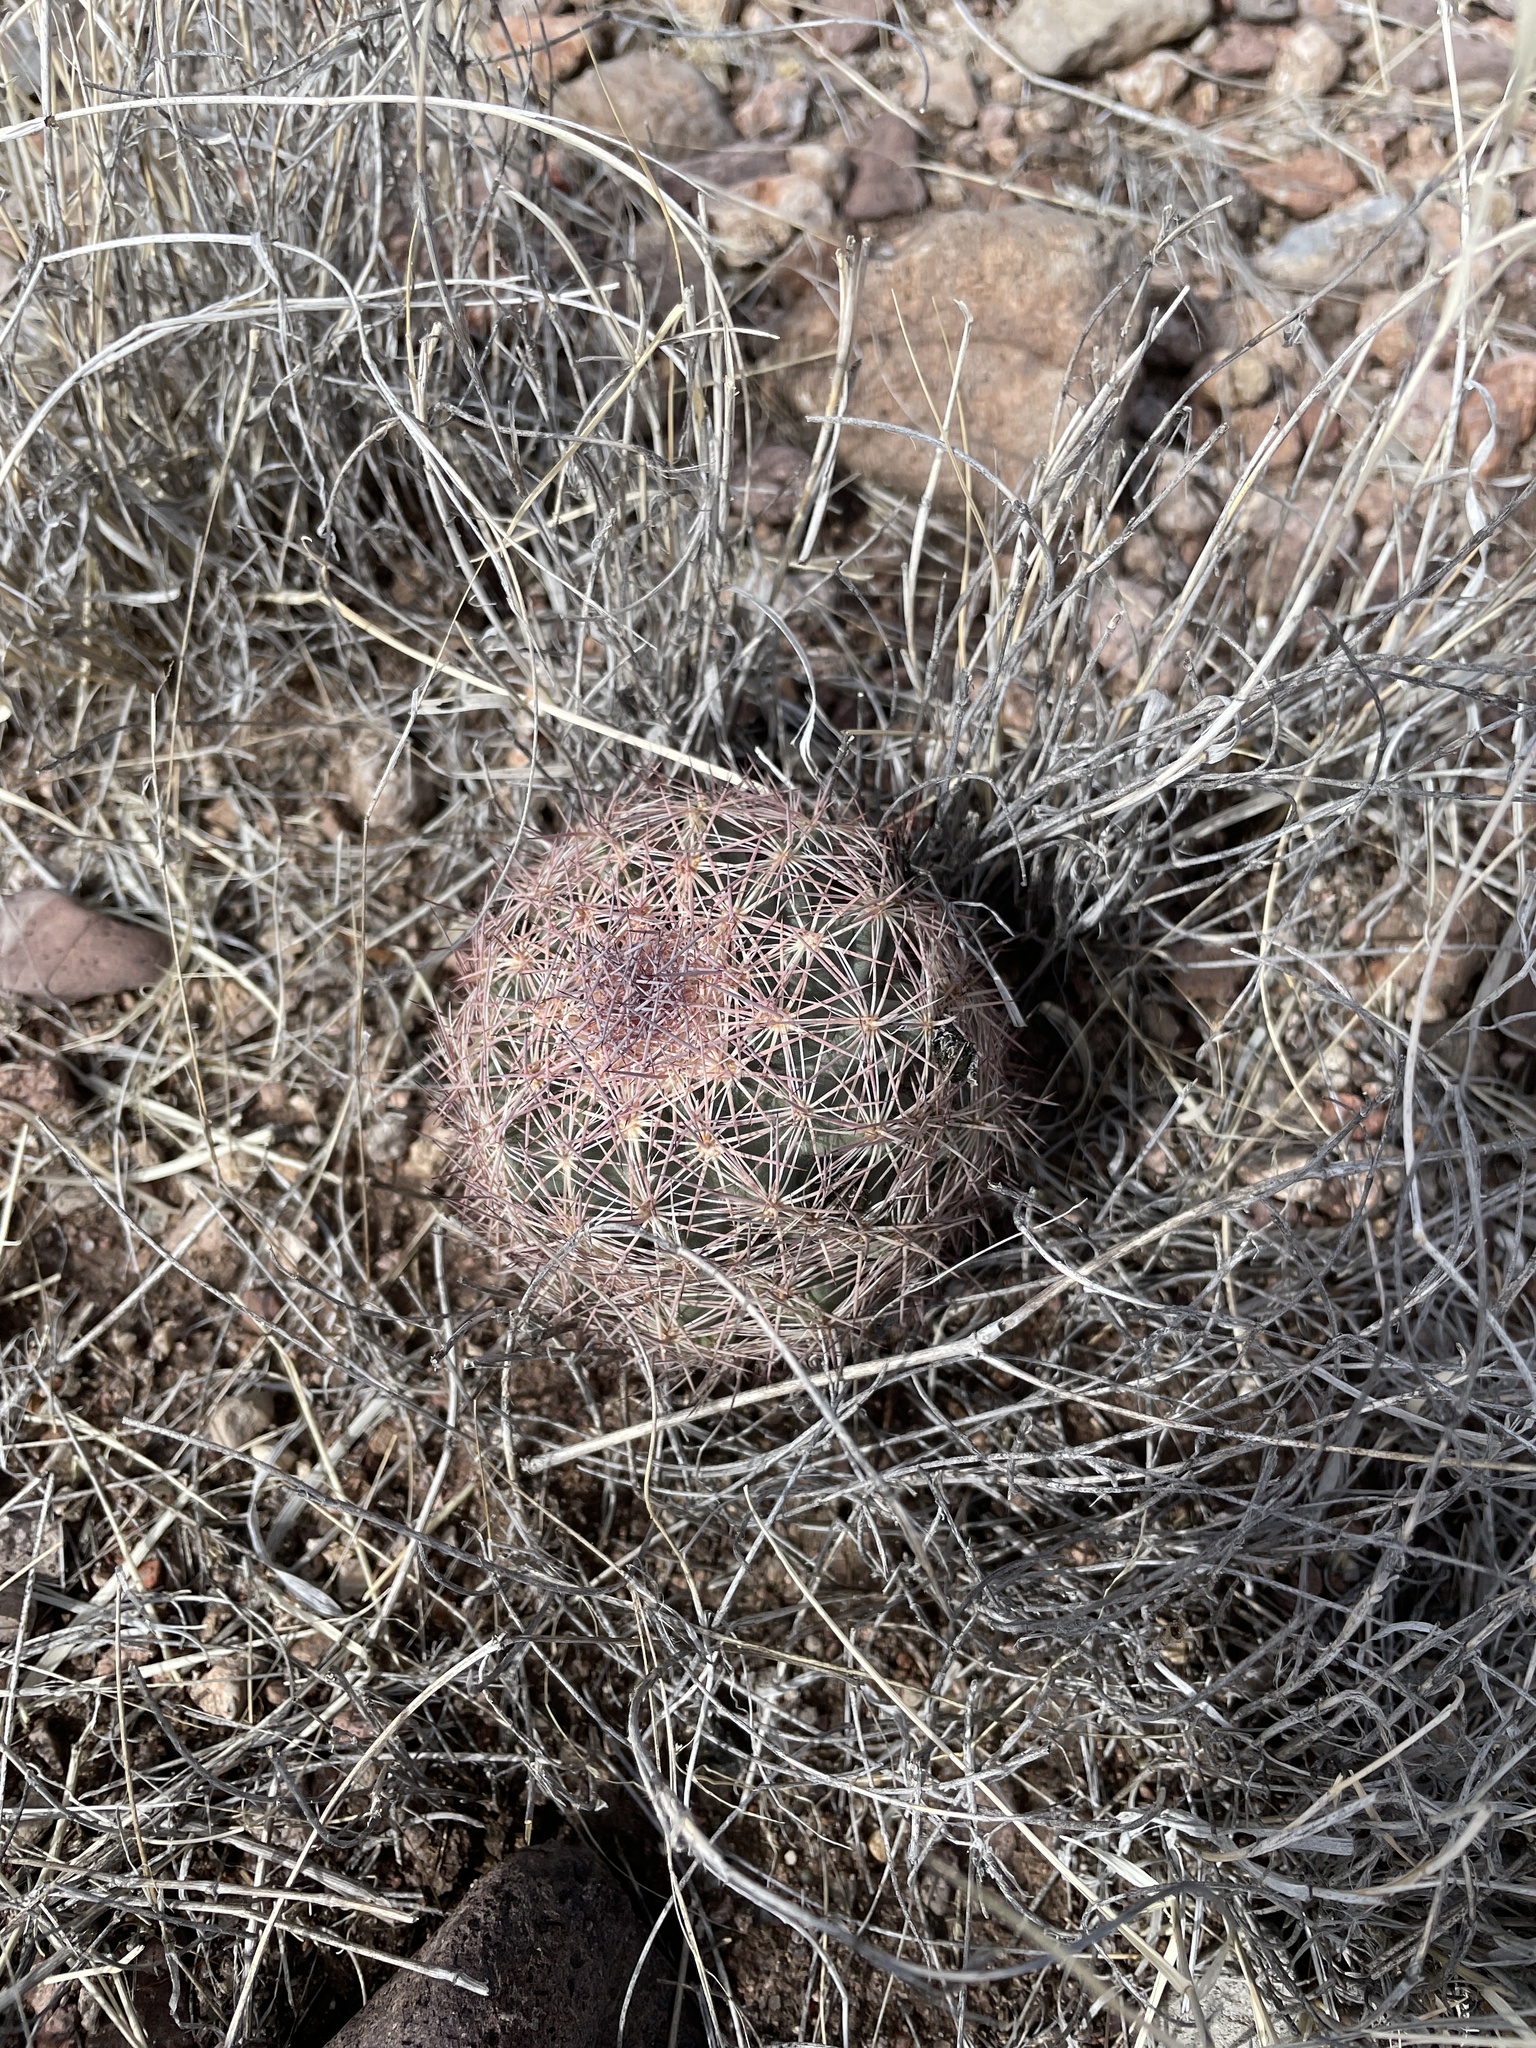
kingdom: Plantae
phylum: Tracheophyta
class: Magnoliopsida
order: Caryophyllales
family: Cactaceae
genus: Sclerocactus
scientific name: Sclerocactus intertextus
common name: White fish-hook cactus
